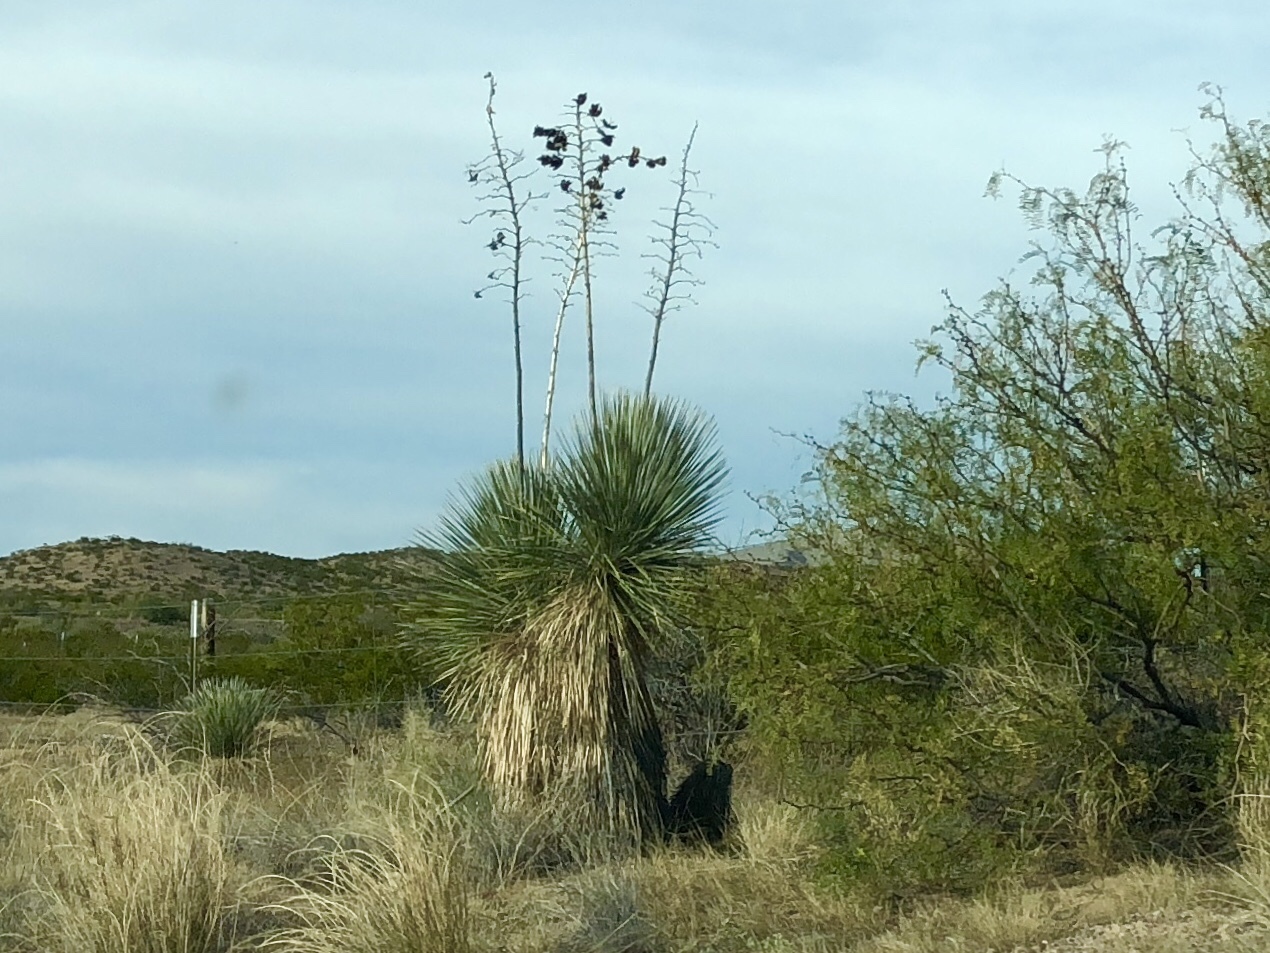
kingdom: Plantae
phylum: Tracheophyta
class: Liliopsida
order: Asparagales
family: Asparagaceae
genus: Yucca
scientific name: Yucca elata
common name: Palmella
